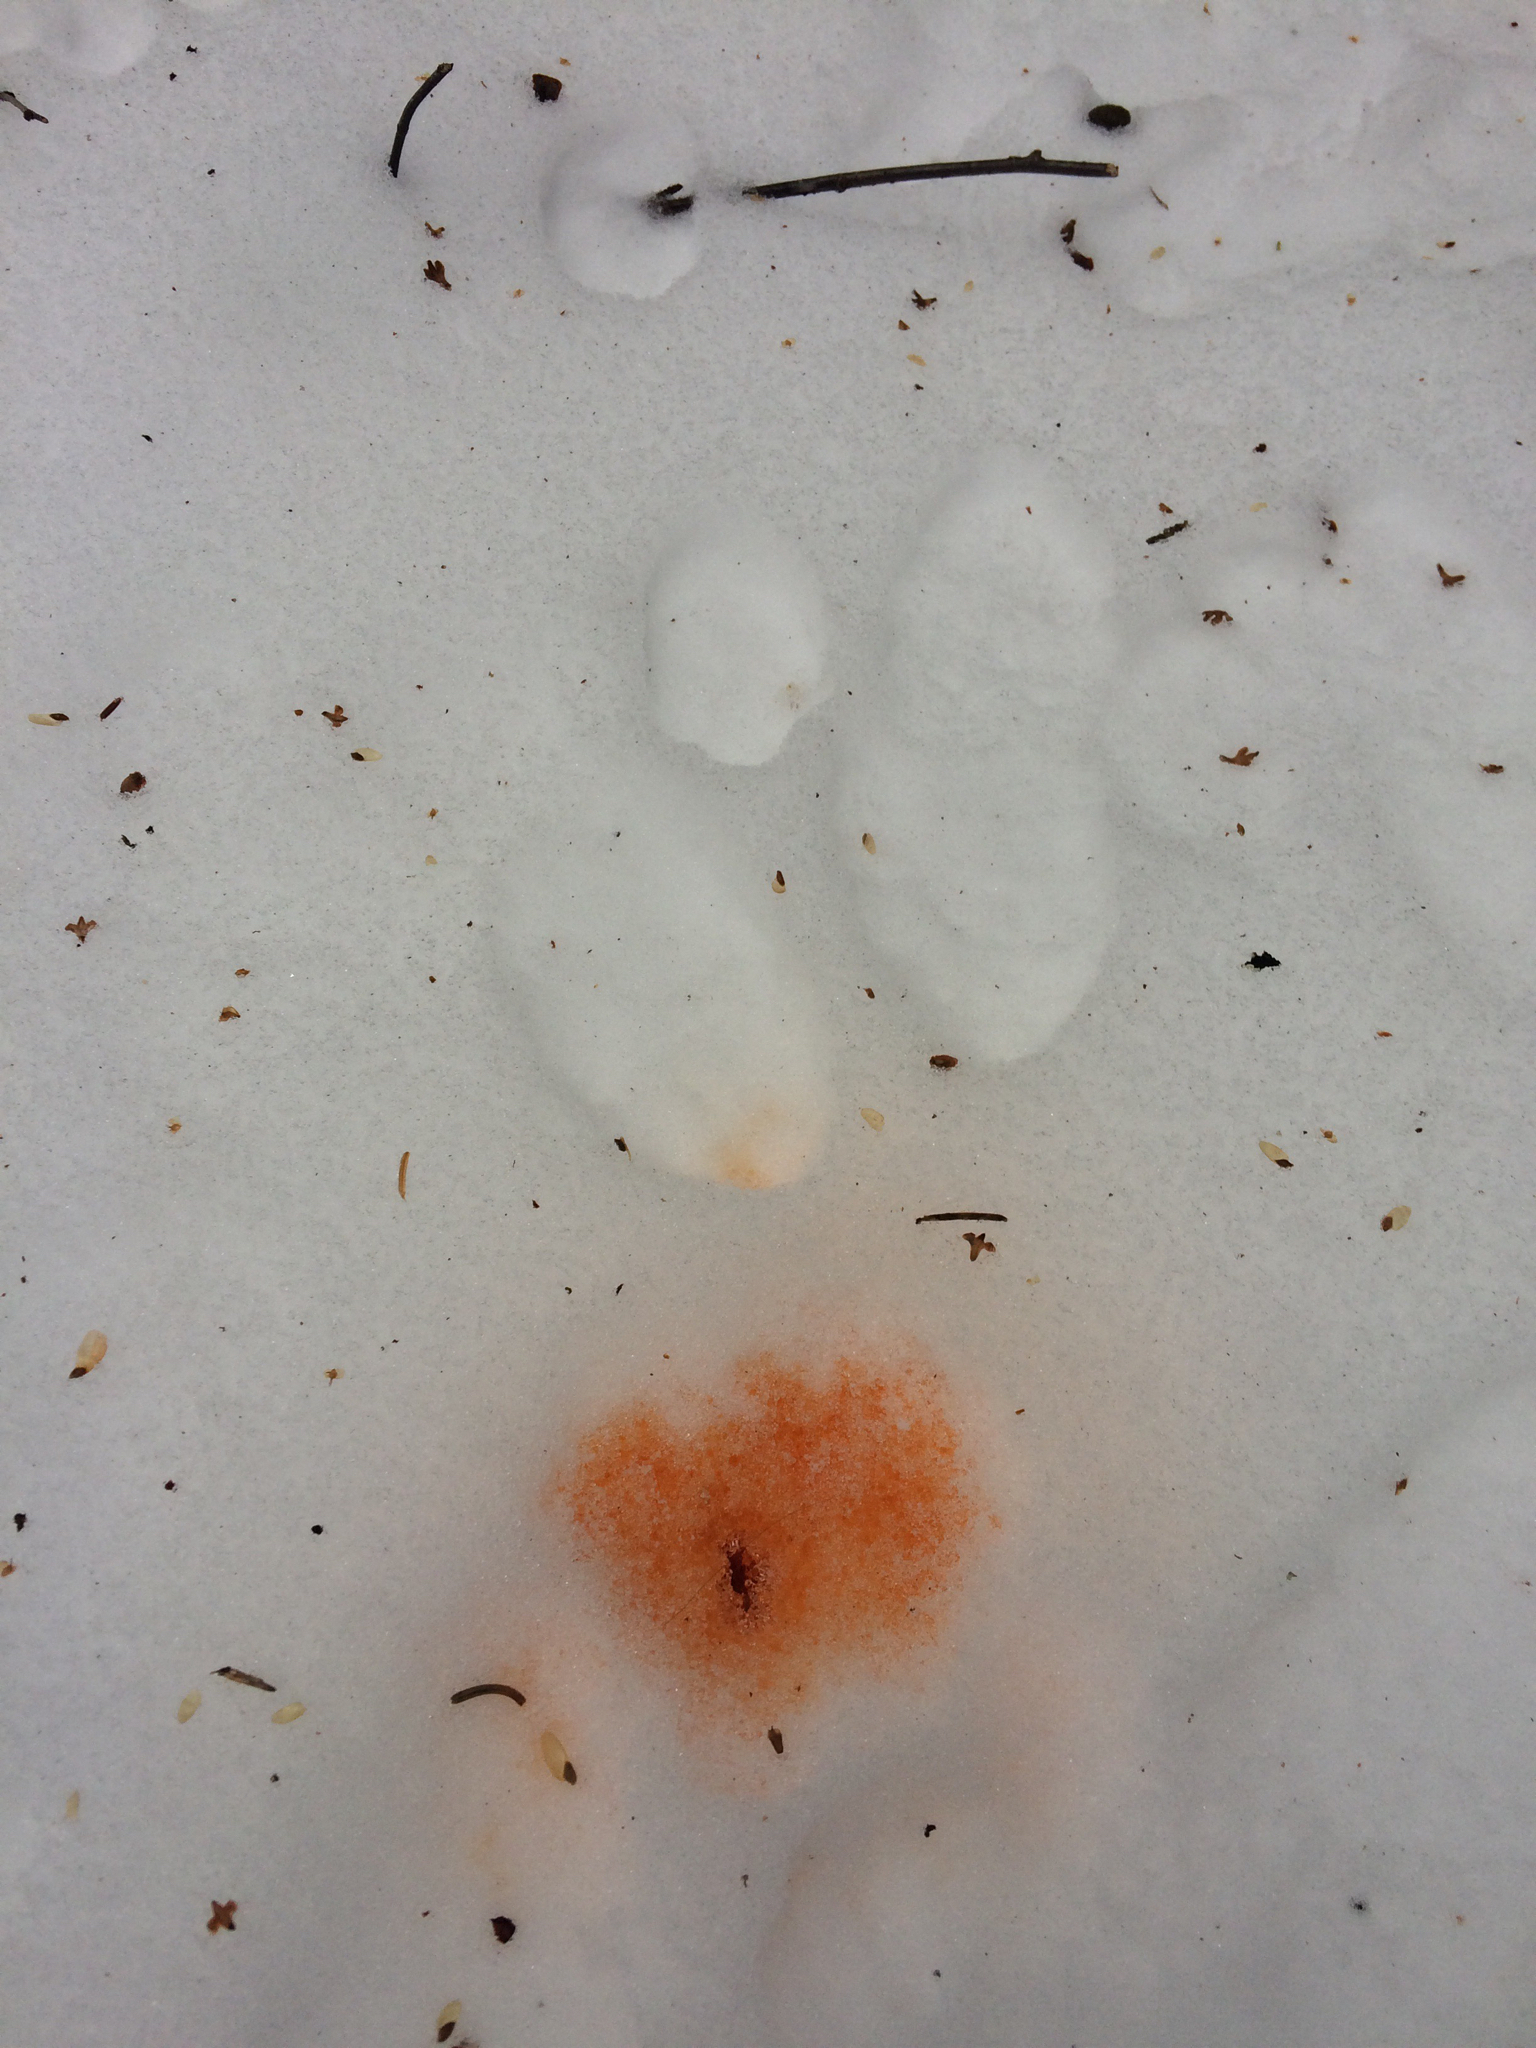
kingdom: Animalia
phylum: Chordata
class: Mammalia
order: Lagomorpha
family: Leporidae
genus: Lepus
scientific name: Lepus americanus
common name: Snowshoe hare
